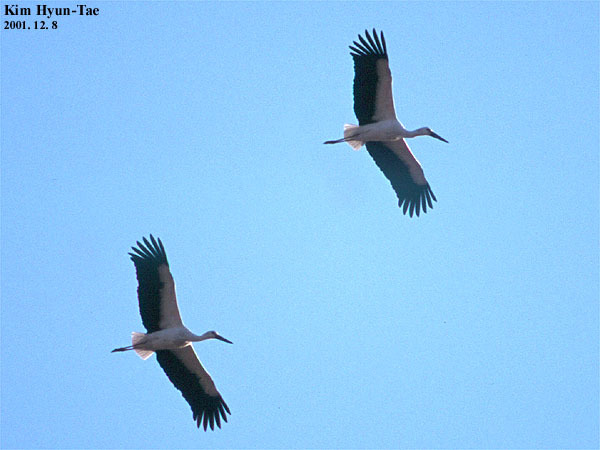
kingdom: Animalia
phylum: Chordata
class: Aves
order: Ciconiiformes
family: Ciconiidae
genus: Ciconia
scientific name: Ciconia boyciana
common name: Oriental stork
